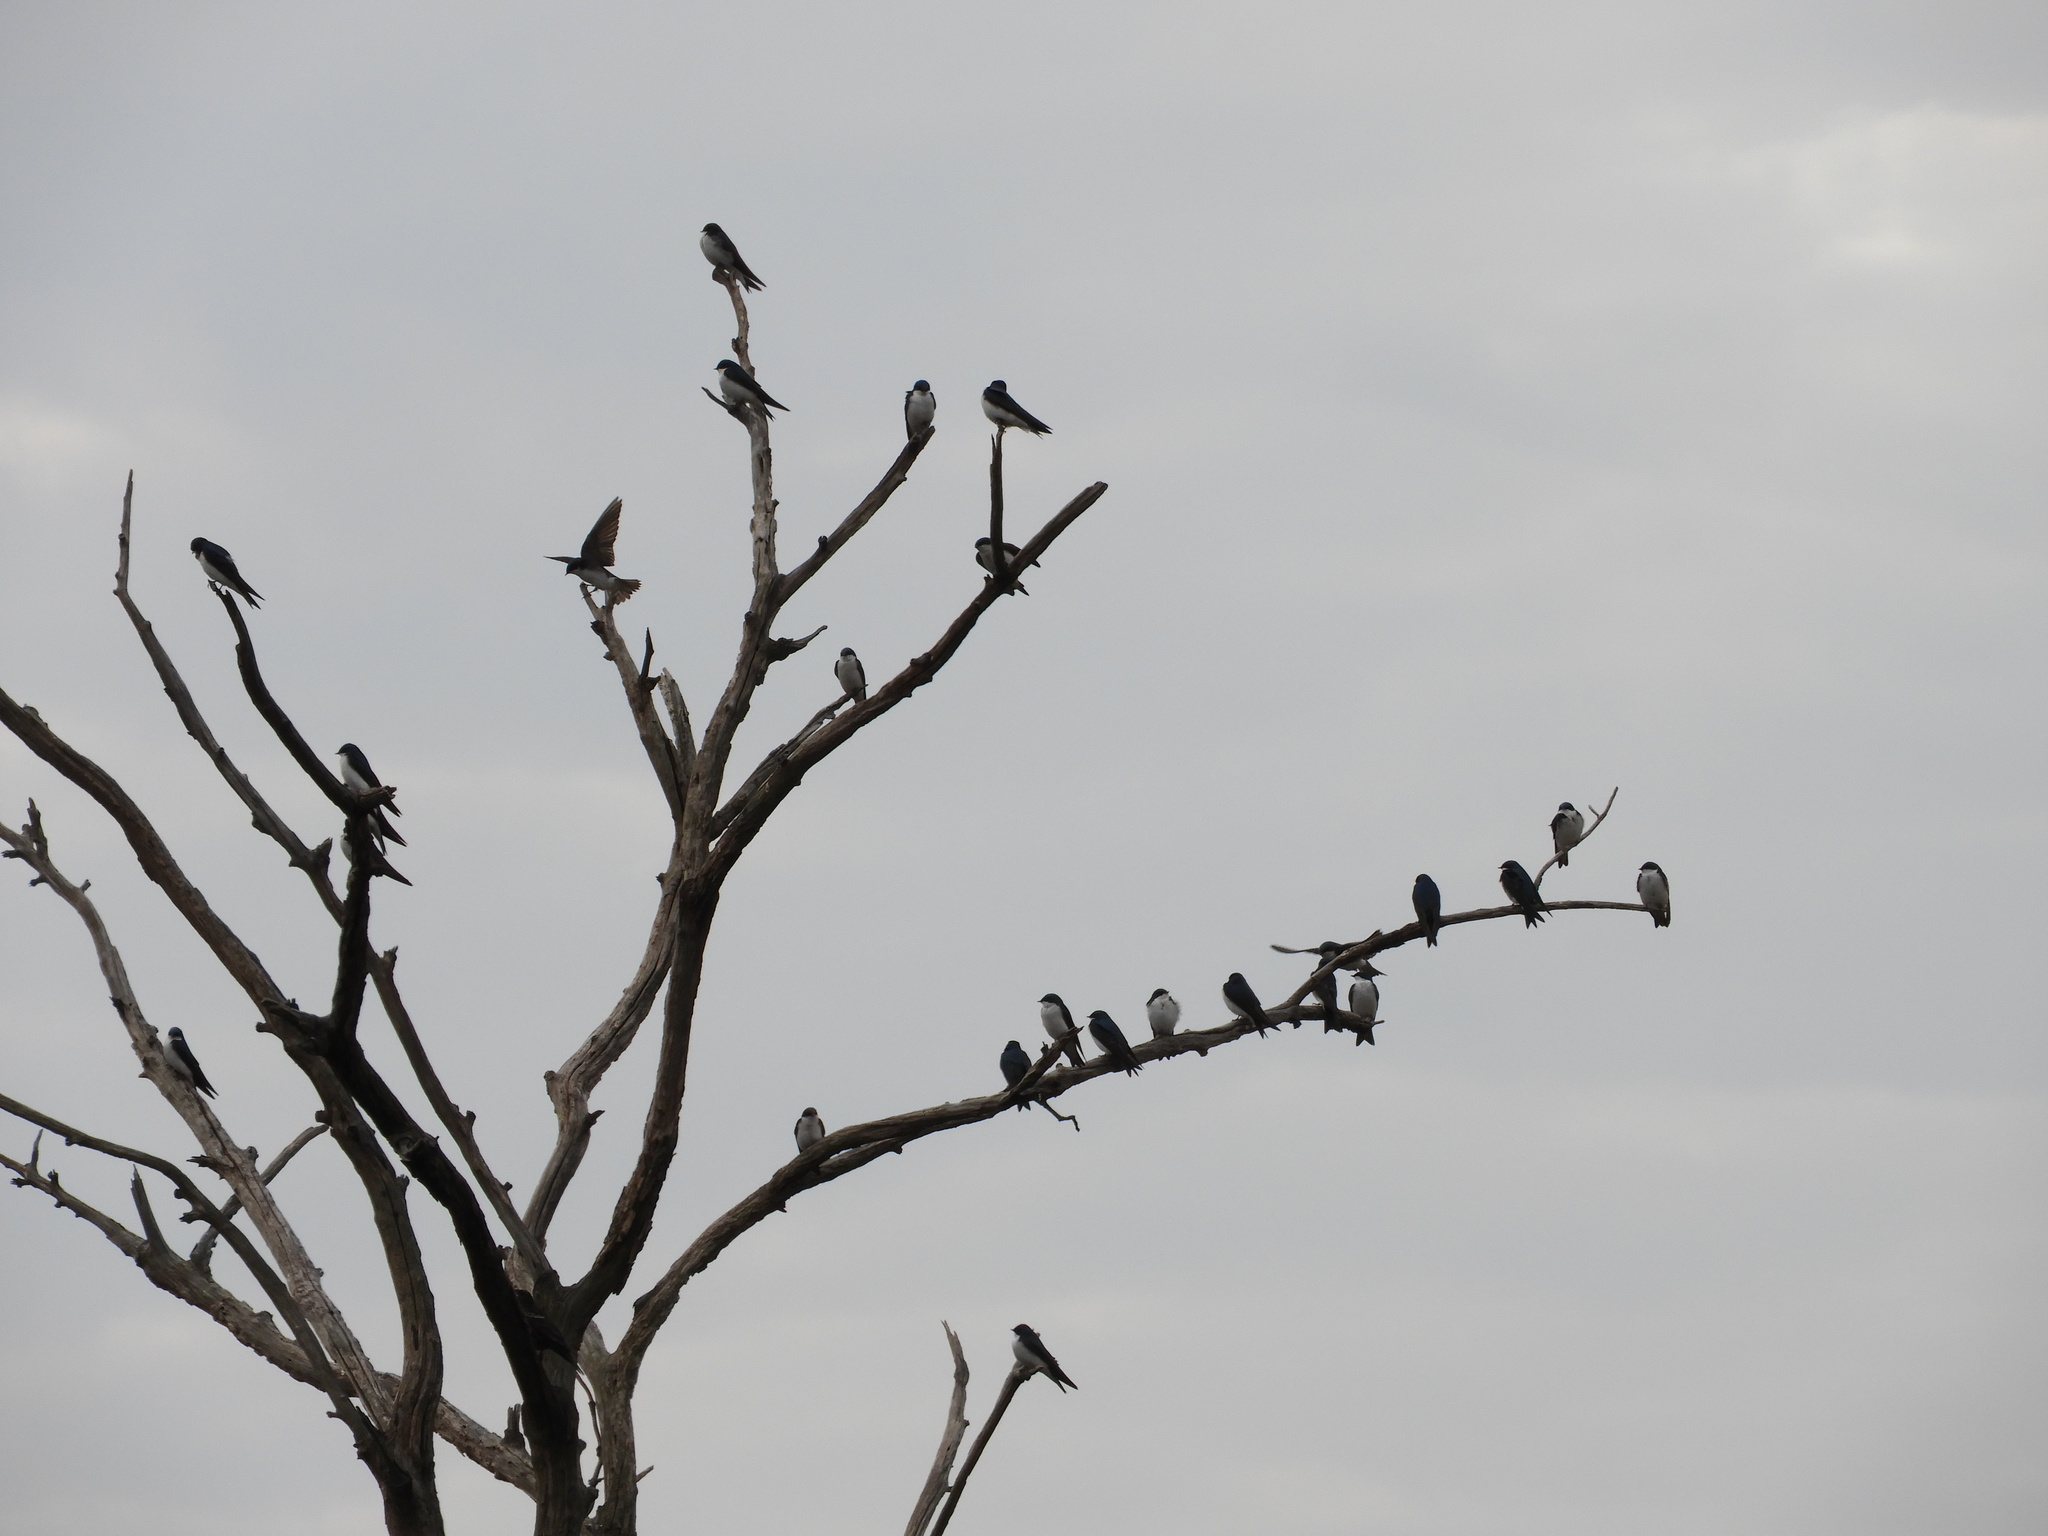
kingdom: Animalia
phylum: Chordata
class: Aves
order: Passeriformes
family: Hirundinidae
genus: Tachycineta
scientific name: Tachycineta bicolor
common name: Tree swallow
